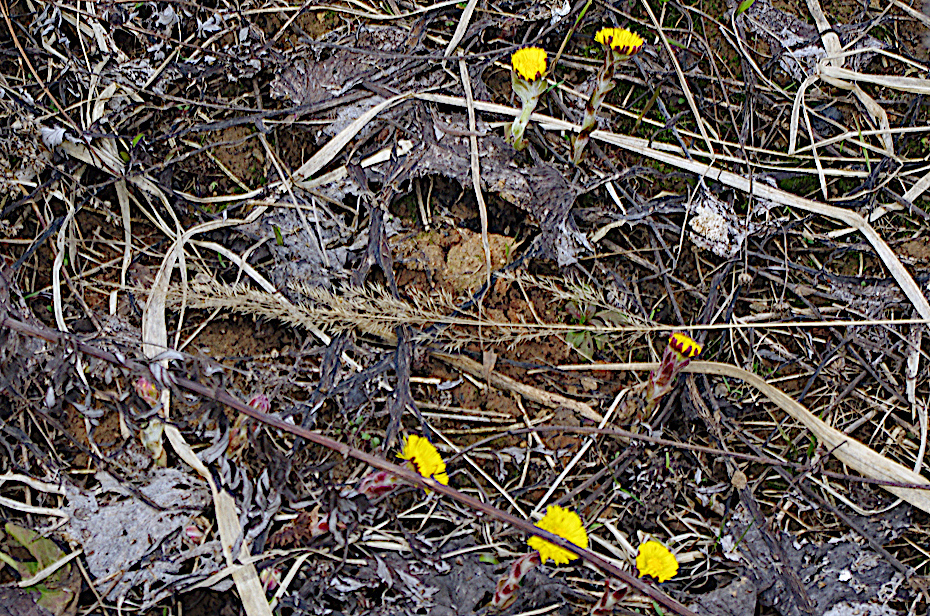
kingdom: Plantae
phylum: Tracheophyta
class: Magnoliopsida
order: Asterales
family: Asteraceae
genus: Tussilago
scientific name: Tussilago farfara
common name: Coltsfoot
